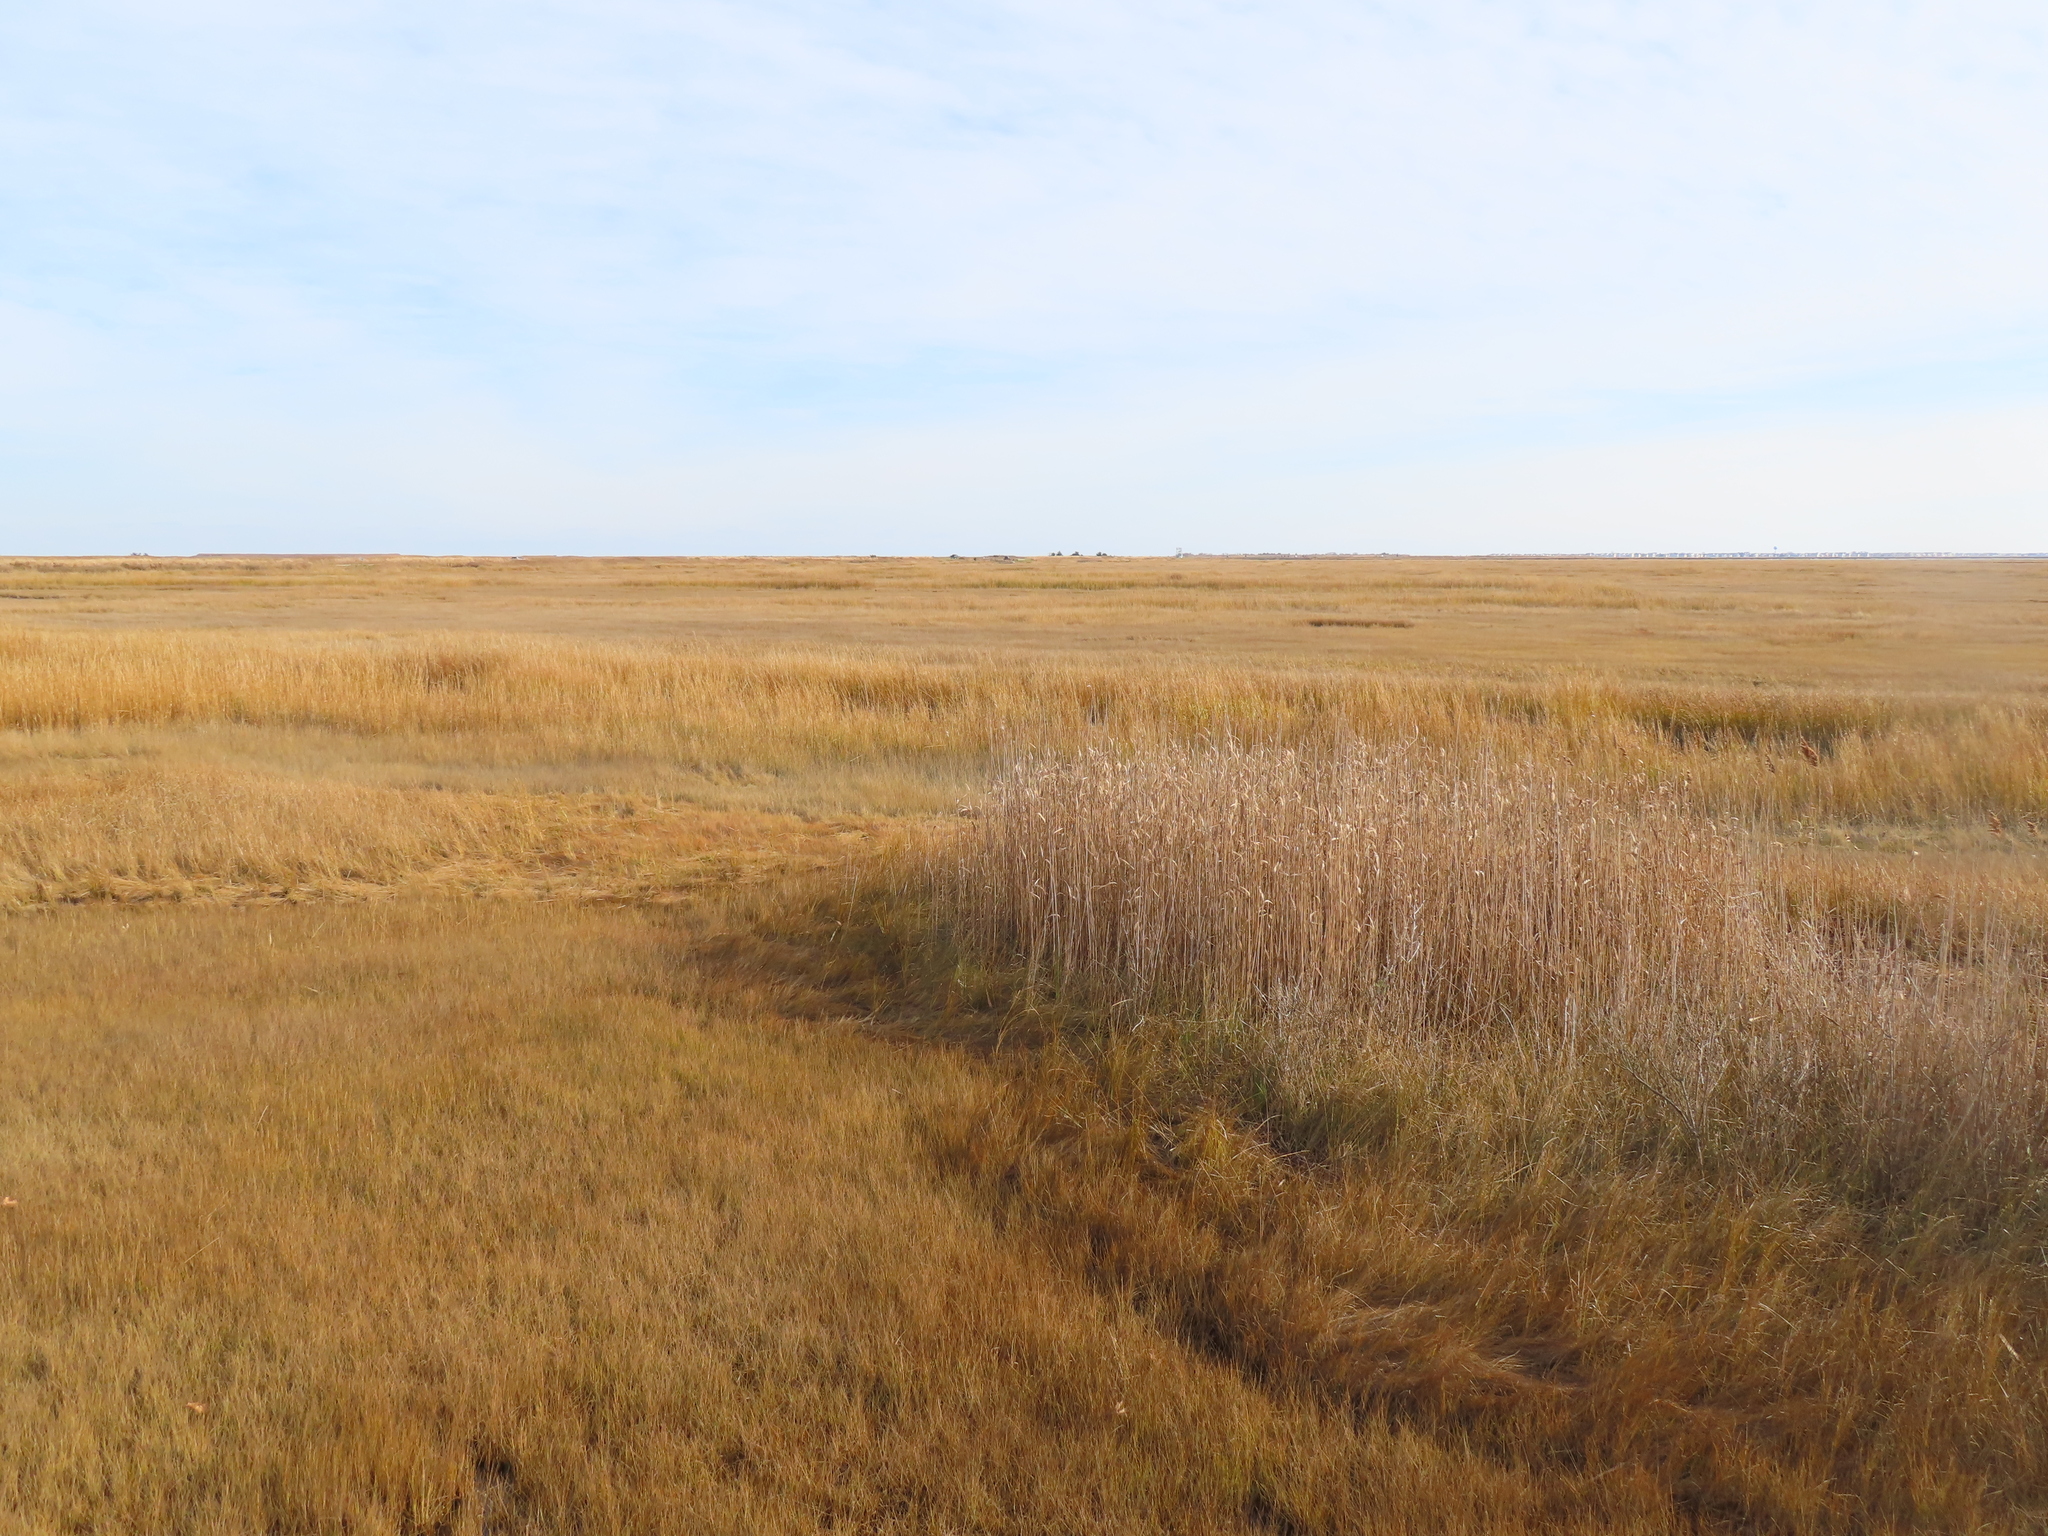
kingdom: Plantae
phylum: Tracheophyta
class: Liliopsida
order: Poales
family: Poaceae
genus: Phragmites
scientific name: Phragmites australis
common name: Common reed
